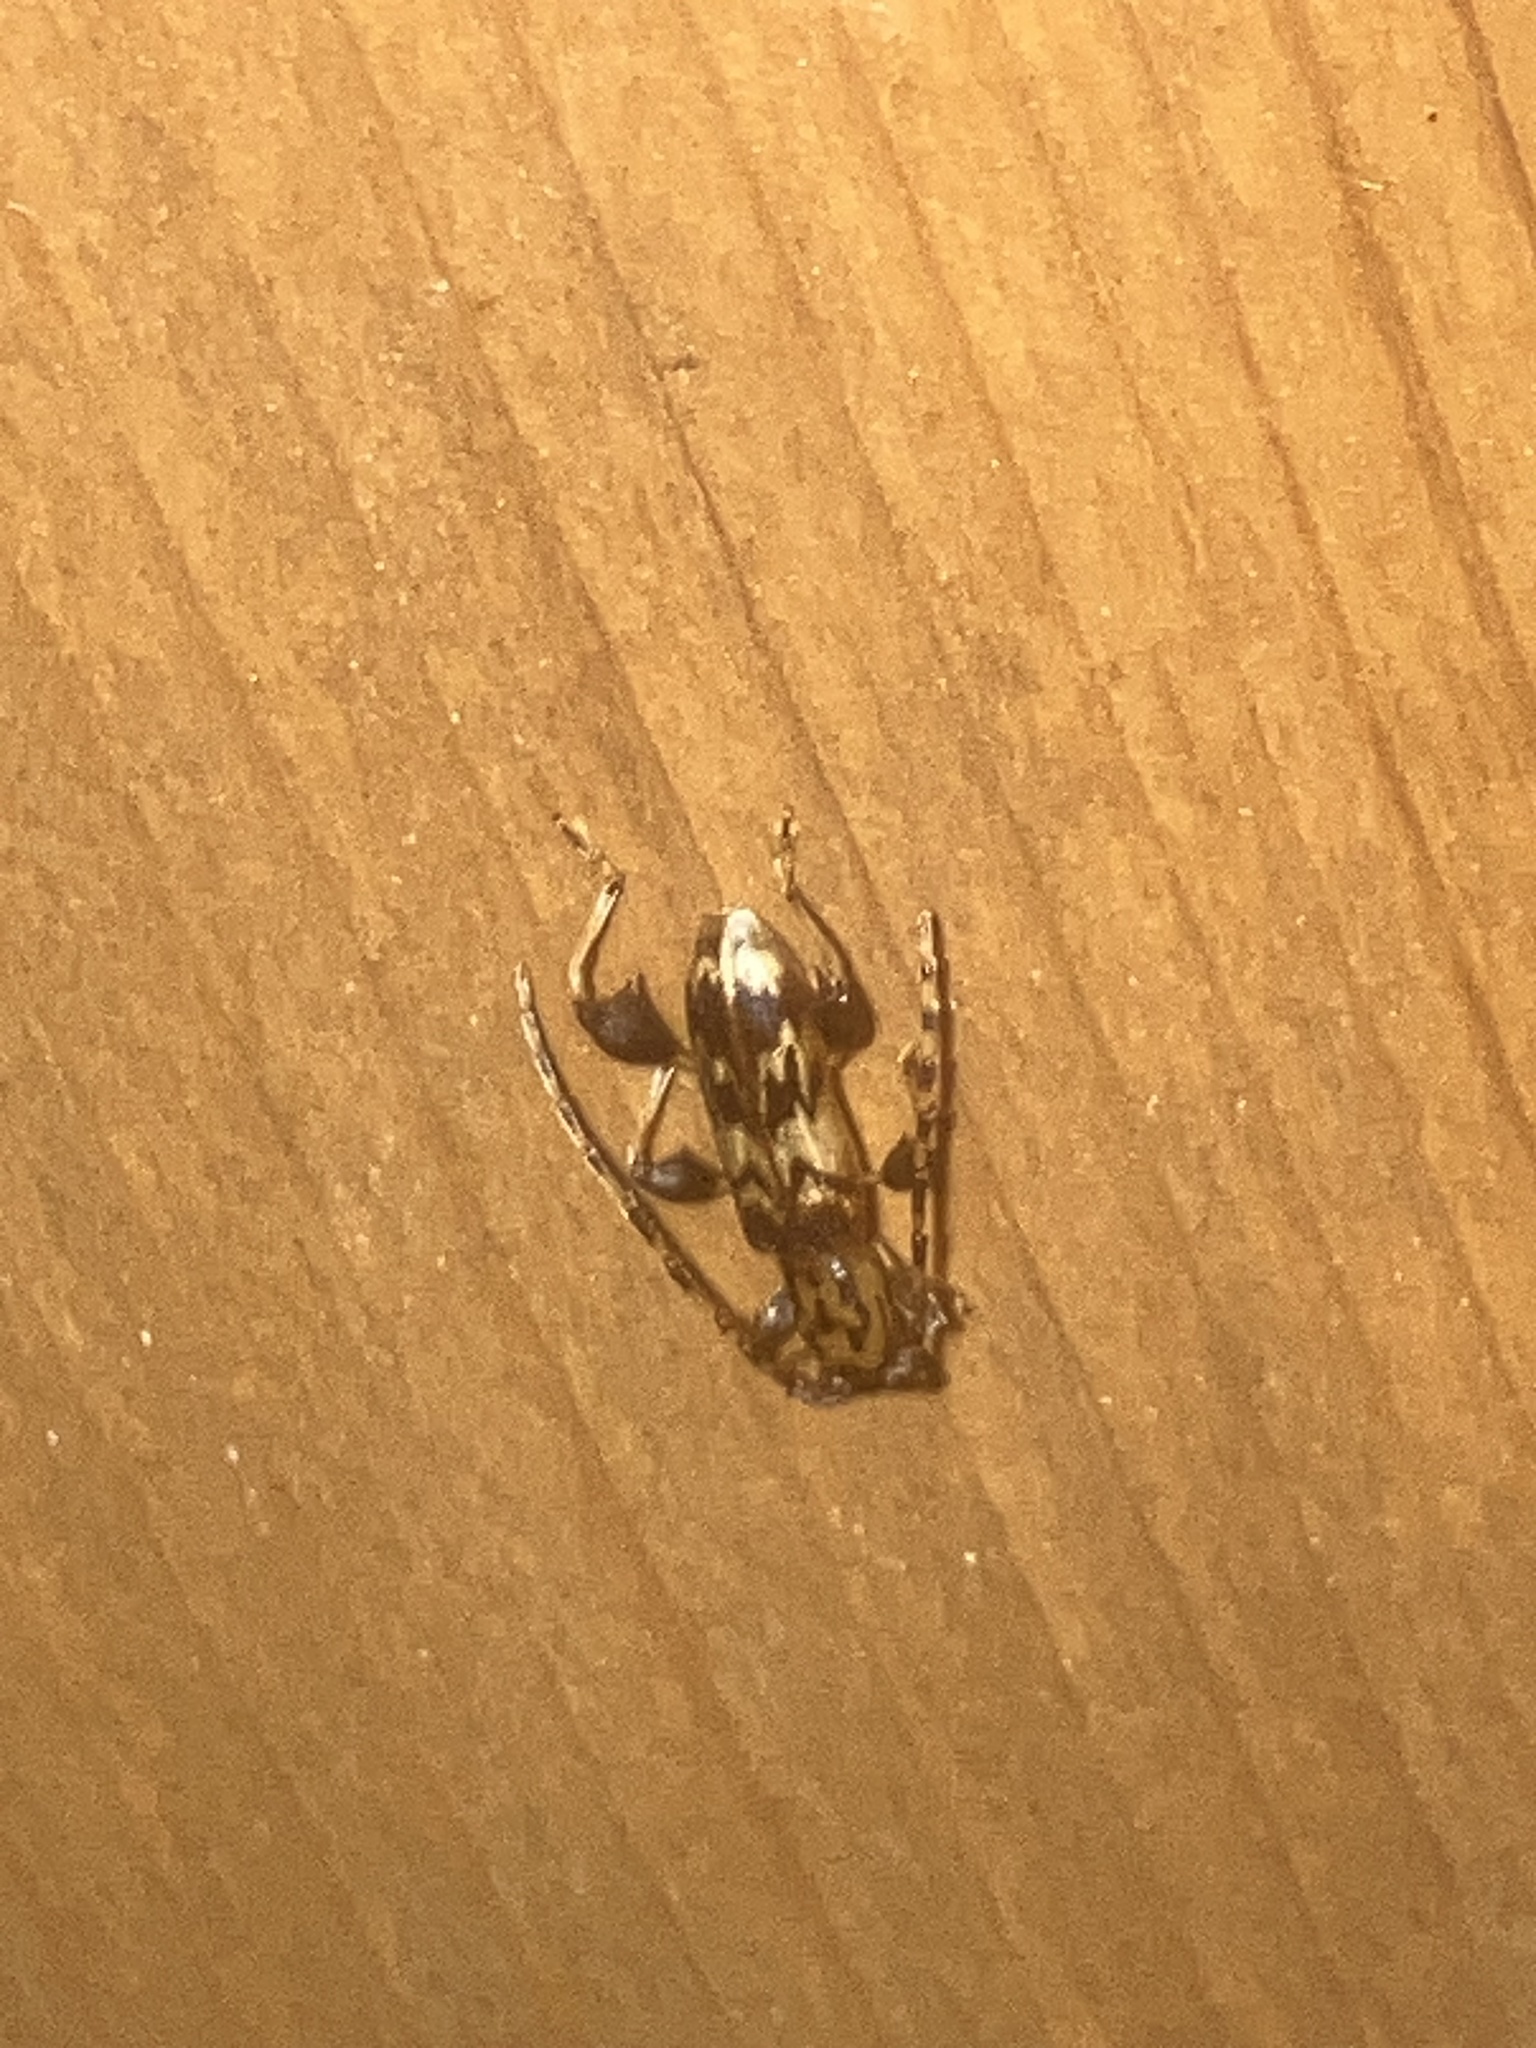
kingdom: Animalia
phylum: Arthropoda
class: Insecta
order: Coleoptera
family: Cerambycidae
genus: Plectromerus
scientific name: Plectromerus dentipes
